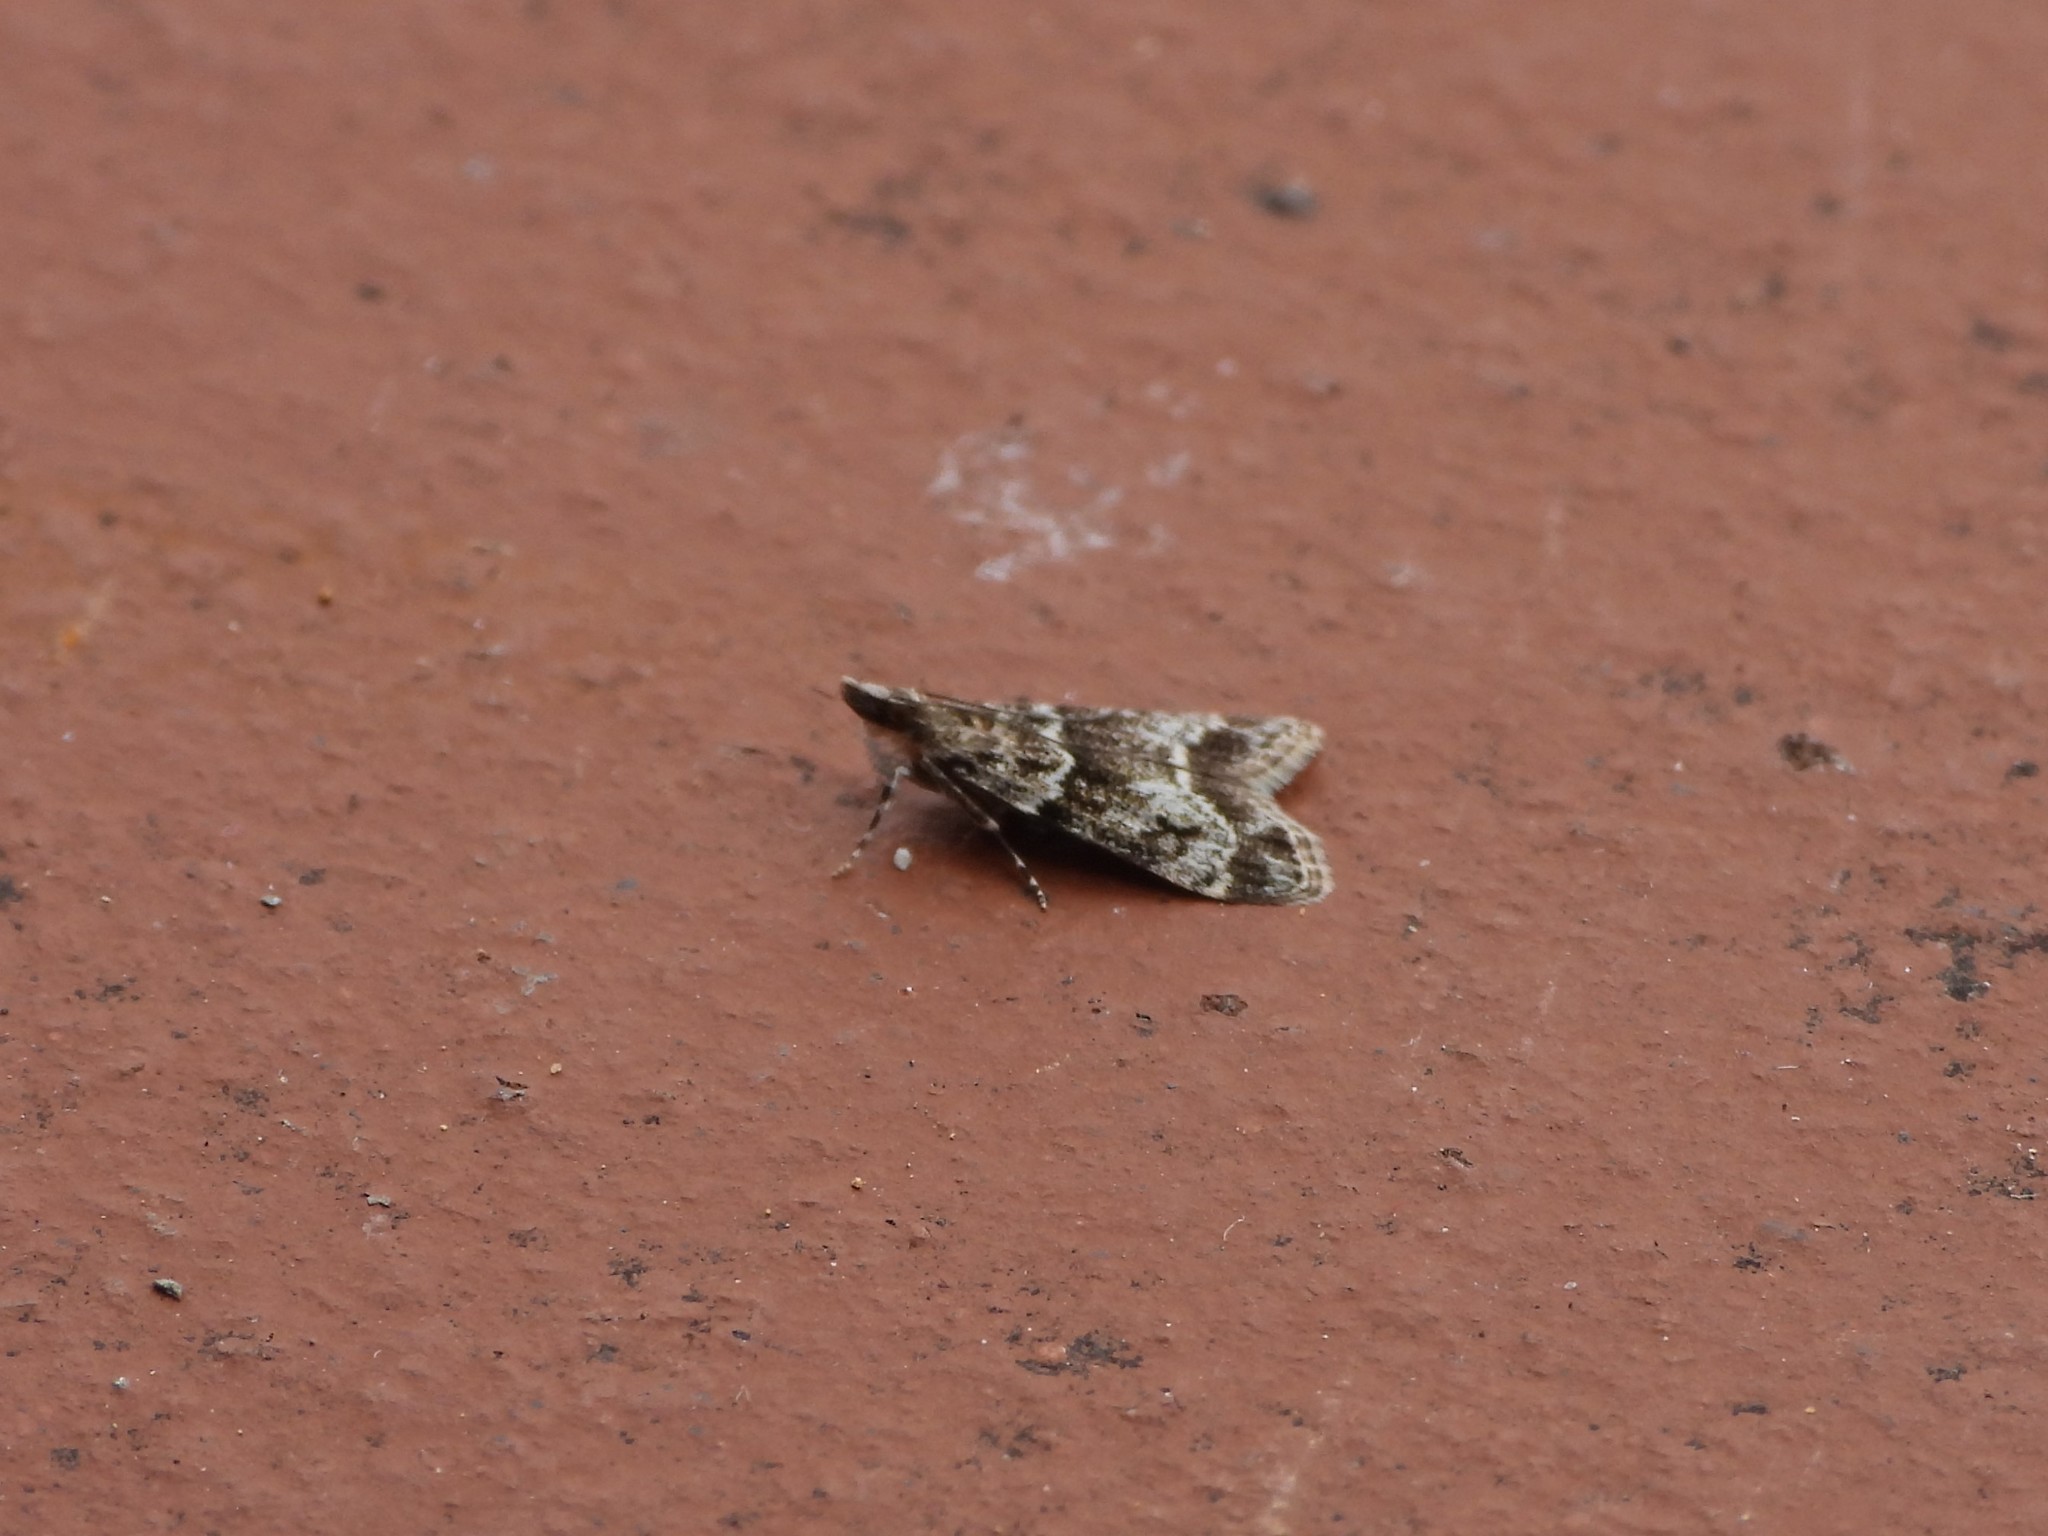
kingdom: Animalia
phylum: Arthropoda
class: Insecta
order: Lepidoptera
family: Crambidae
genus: Eudonia
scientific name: Eudonia mercurella
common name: Small grey
